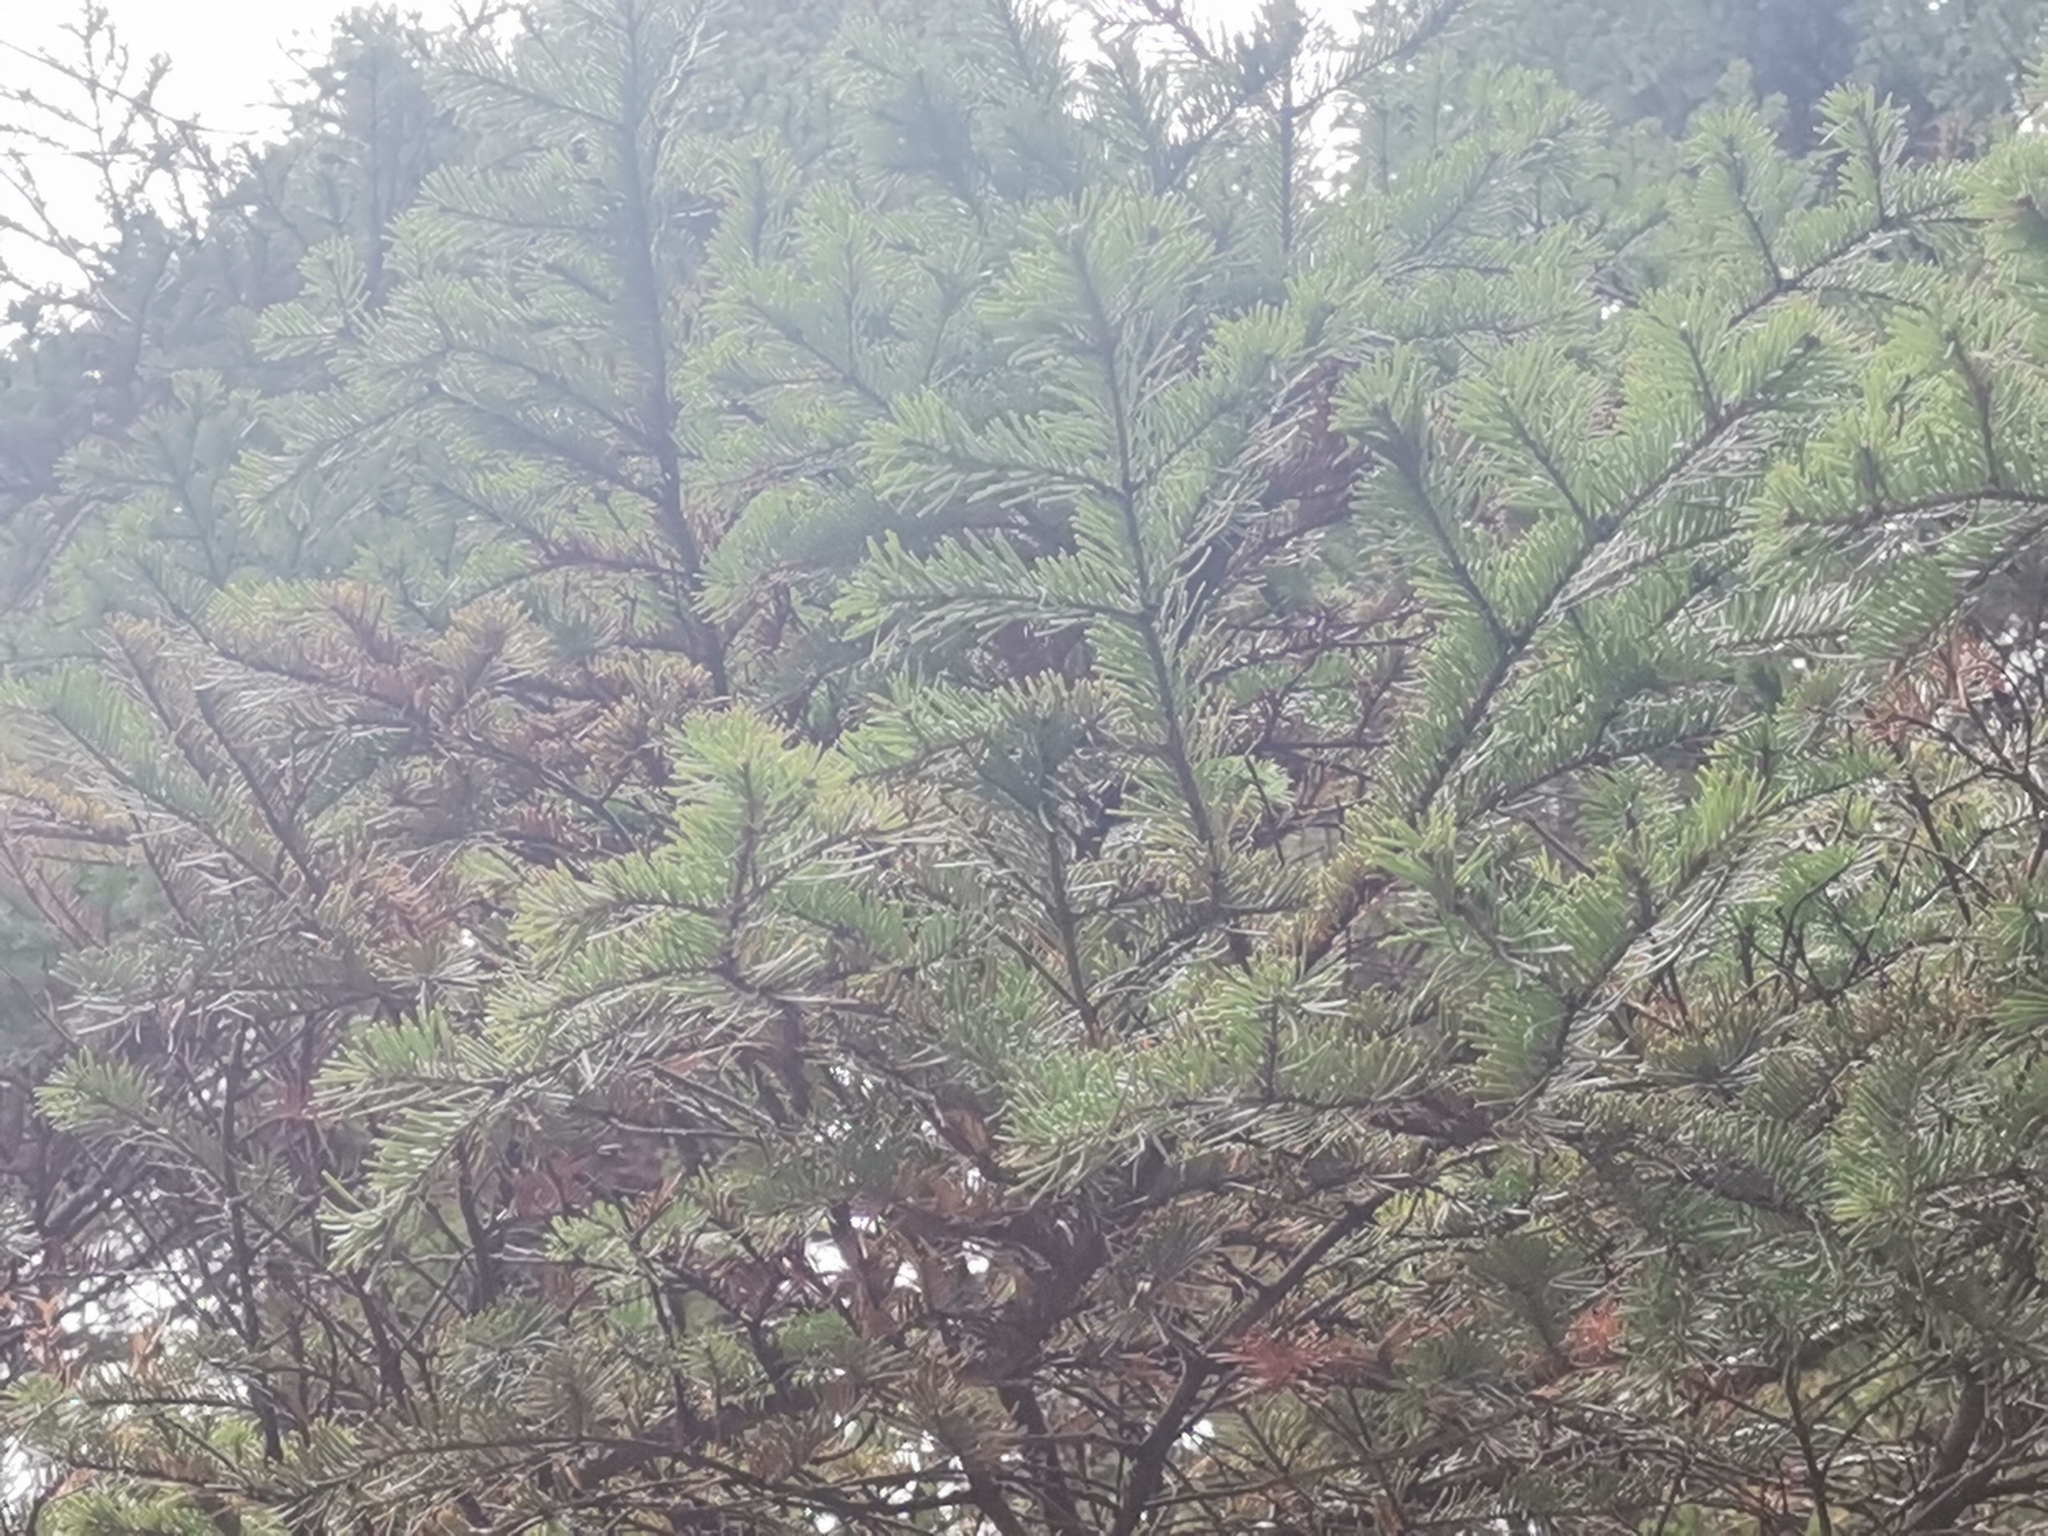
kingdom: Plantae
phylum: Tracheophyta
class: Pinopsida
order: Pinales
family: Pinaceae
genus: Abies
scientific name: Abies sibirica
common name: Siberian fir
